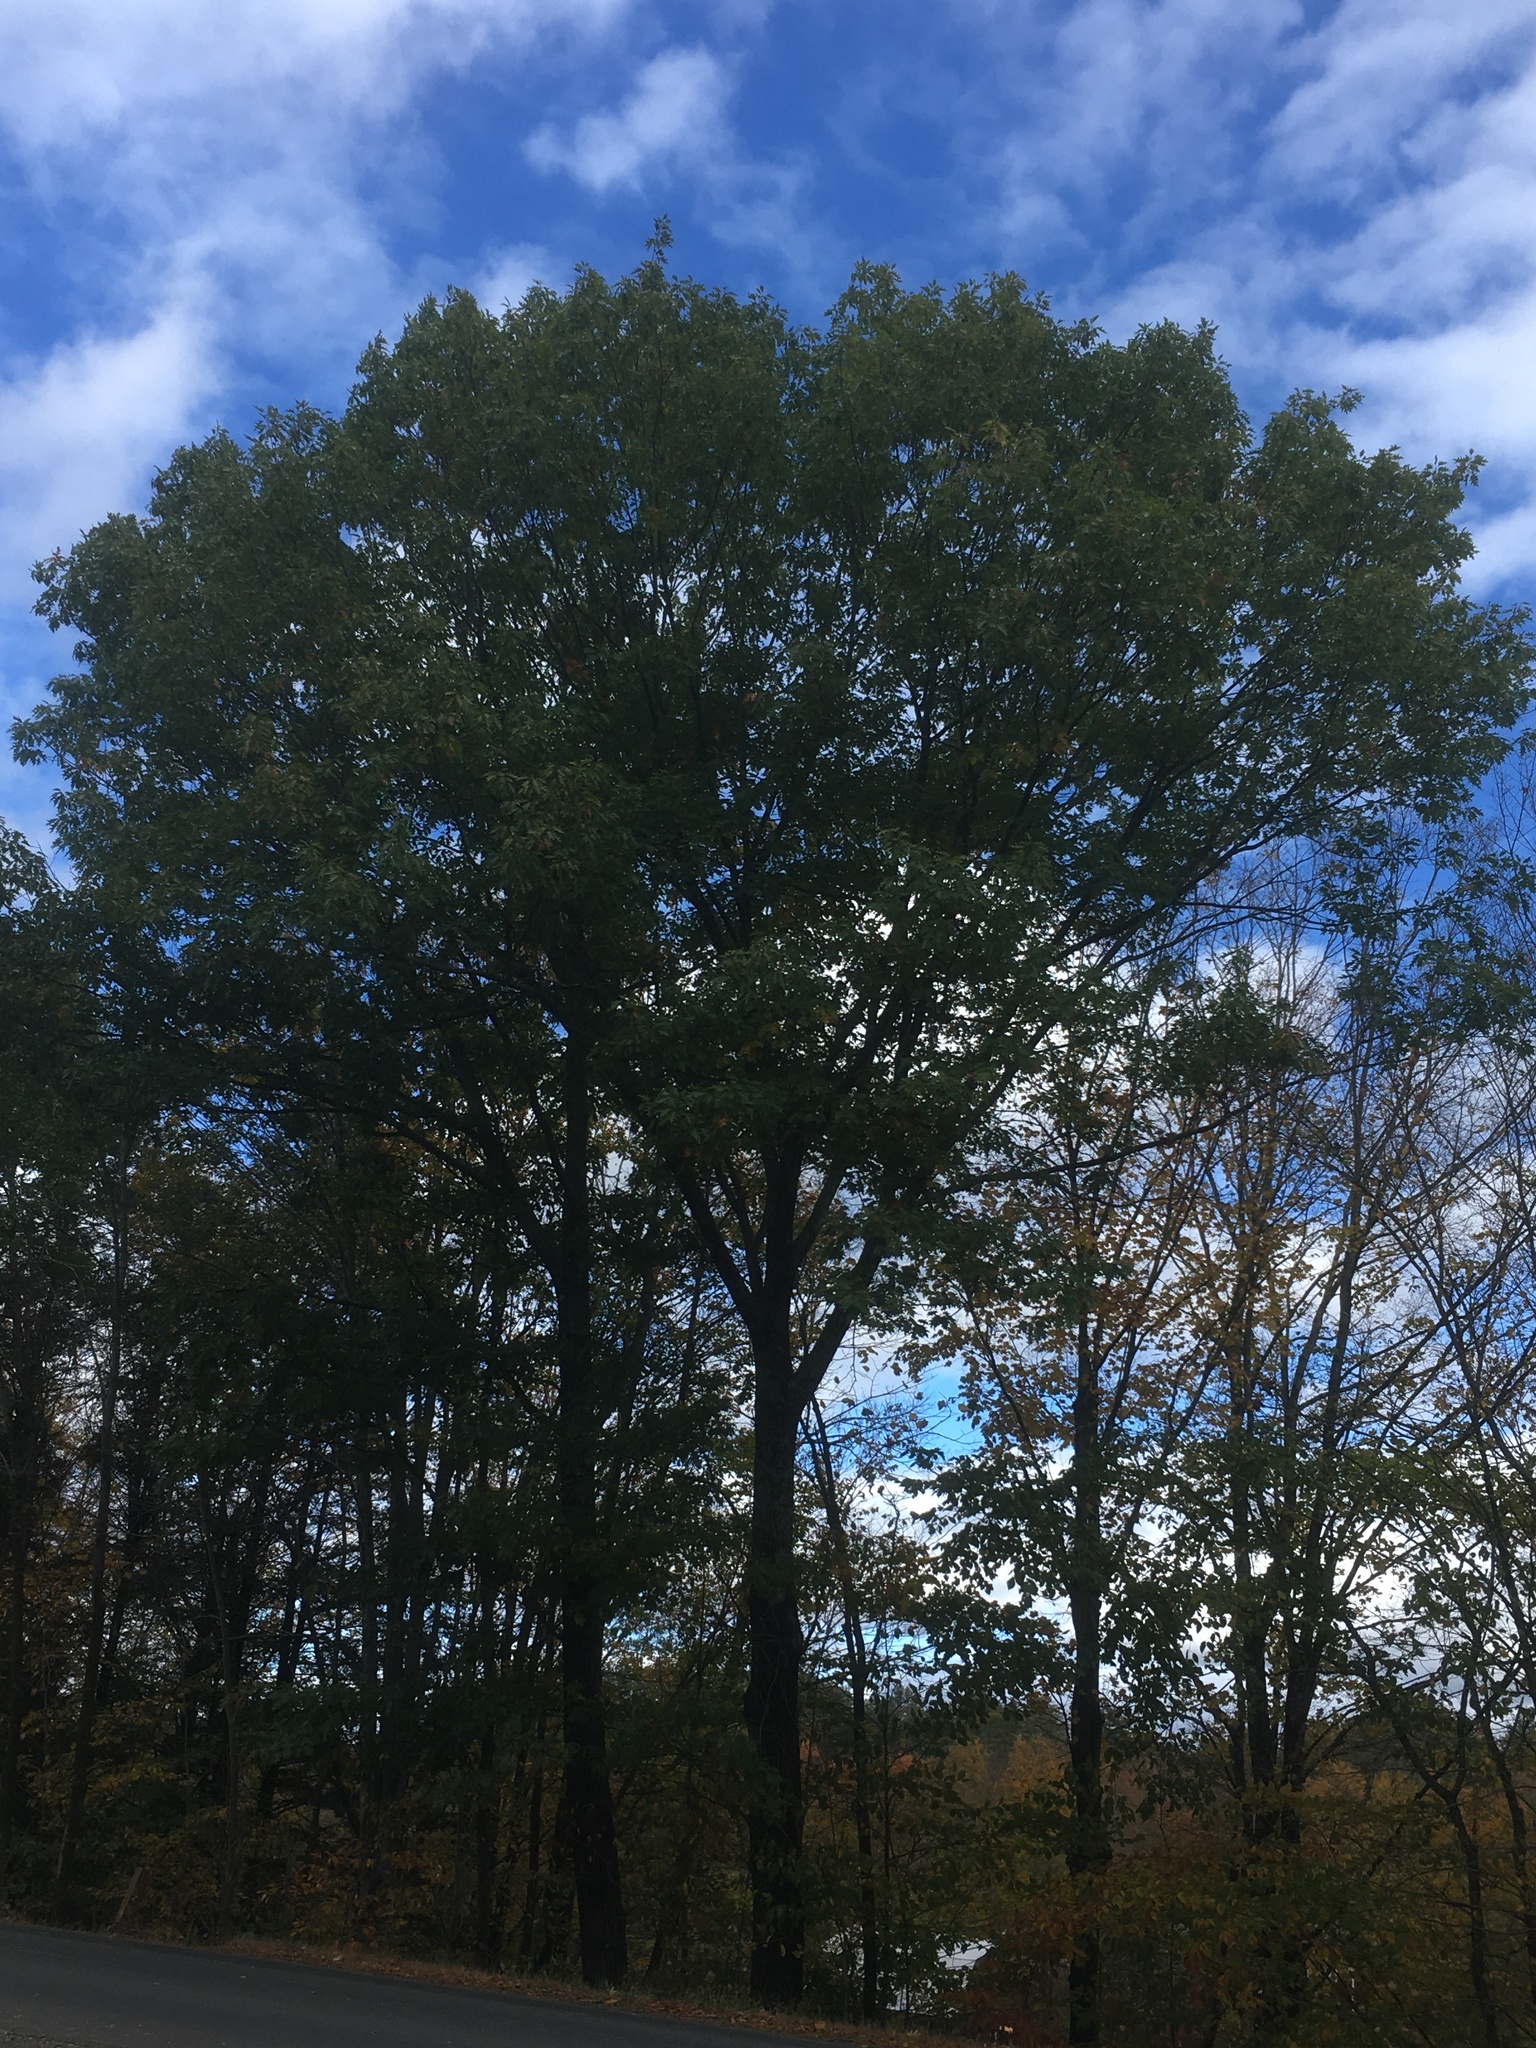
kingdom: Plantae
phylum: Tracheophyta
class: Magnoliopsida
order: Fagales
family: Fagaceae
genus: Quercus
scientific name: Quercus rubra
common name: Red oak
